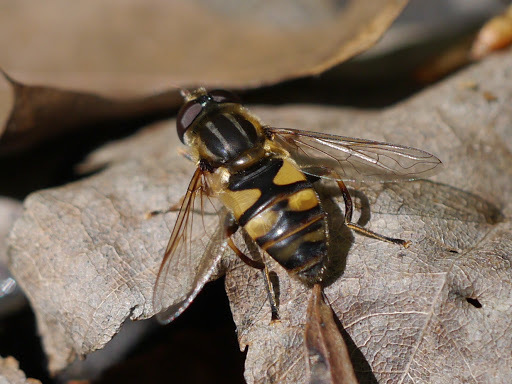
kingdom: Animalia
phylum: Arthropoda
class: Insecta
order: Diptera
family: Syrphidae
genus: Helophilus
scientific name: Helophilus fasciatus
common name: Narrow-headed marsh fly
